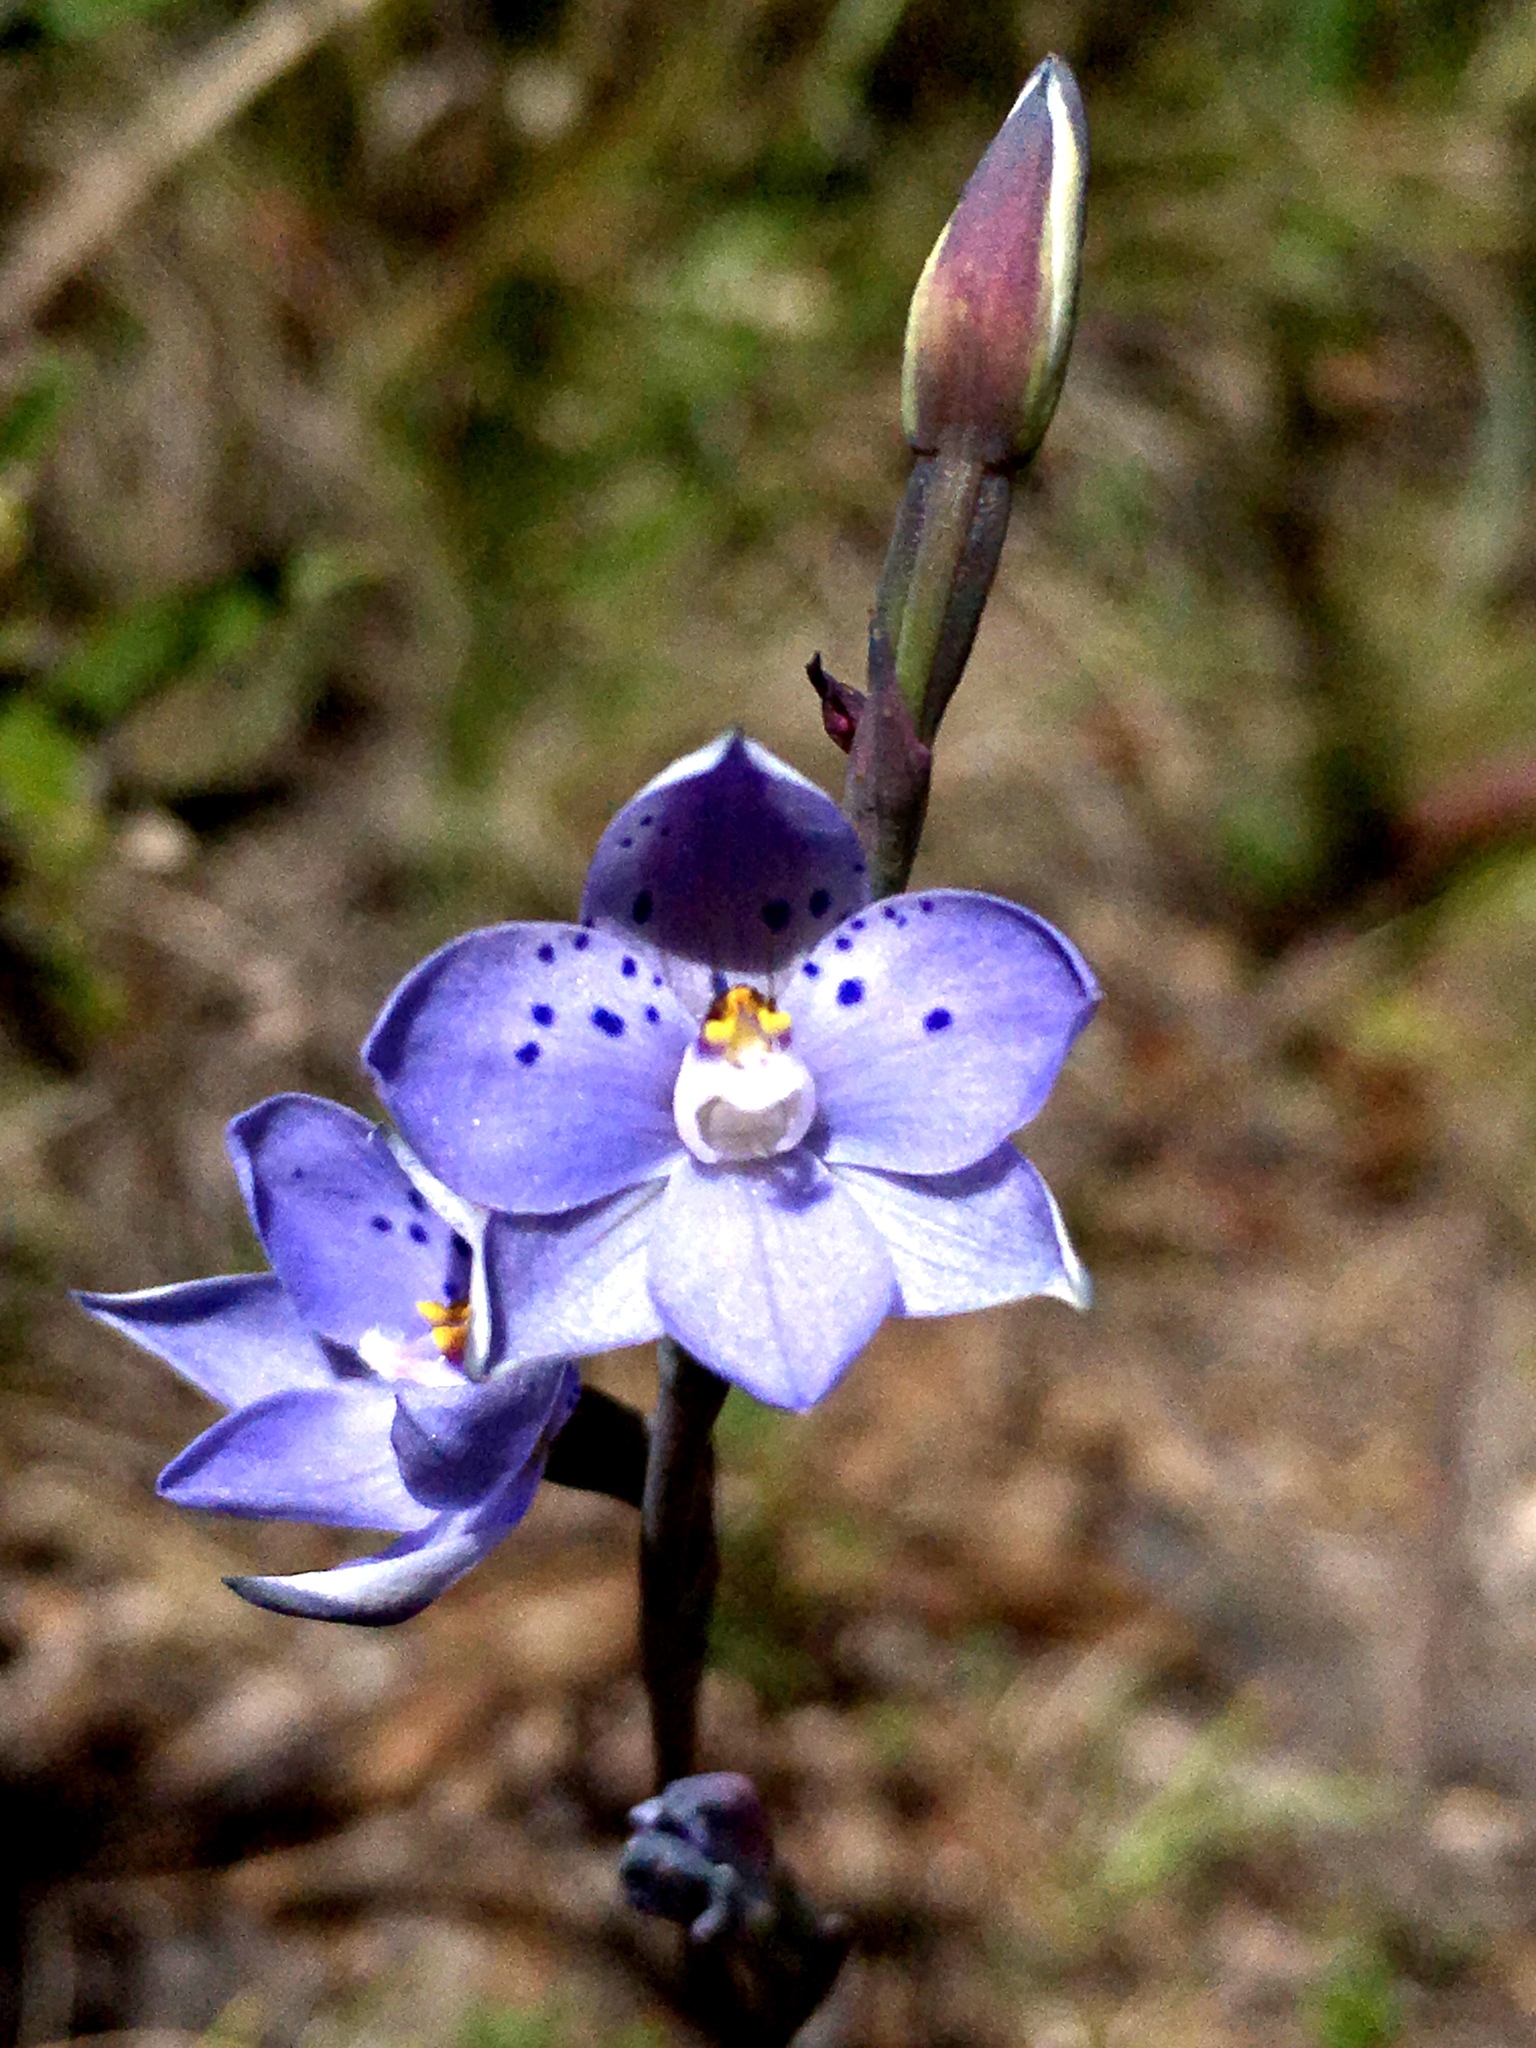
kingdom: Plantae
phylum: Tracheophyta
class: Liliopsida
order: Asparagales
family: Orchidaceae
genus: Thelymitra
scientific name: Thelymitra juncifolia
